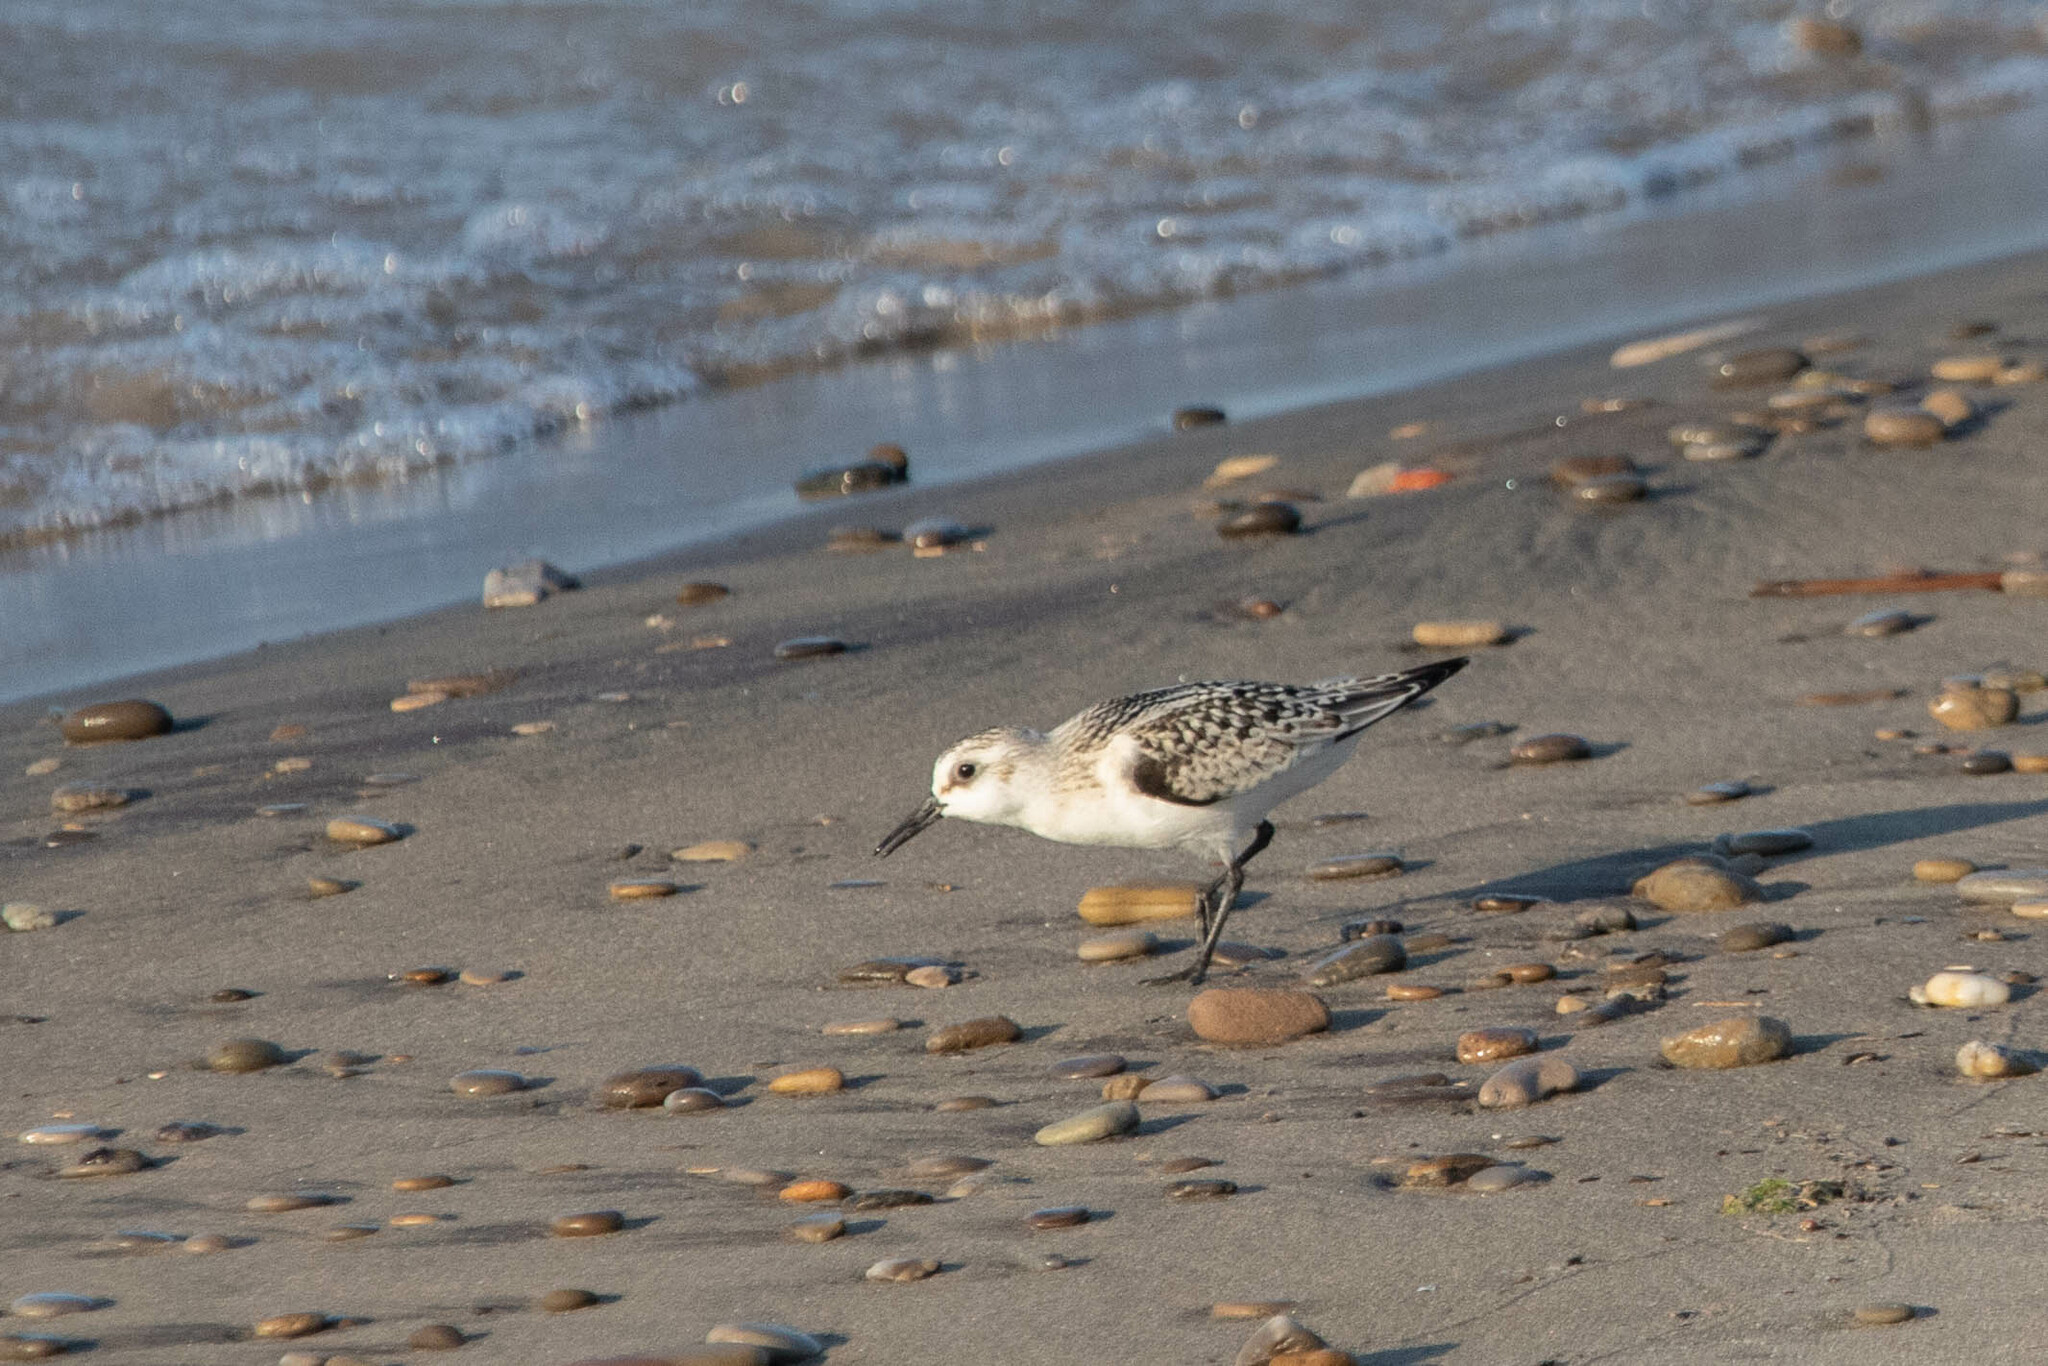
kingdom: Animalia
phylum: Chordata
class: Aves
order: Charadriiformes
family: Scolopacidae
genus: Calidris
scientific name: Calidris alba
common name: Sanderling
